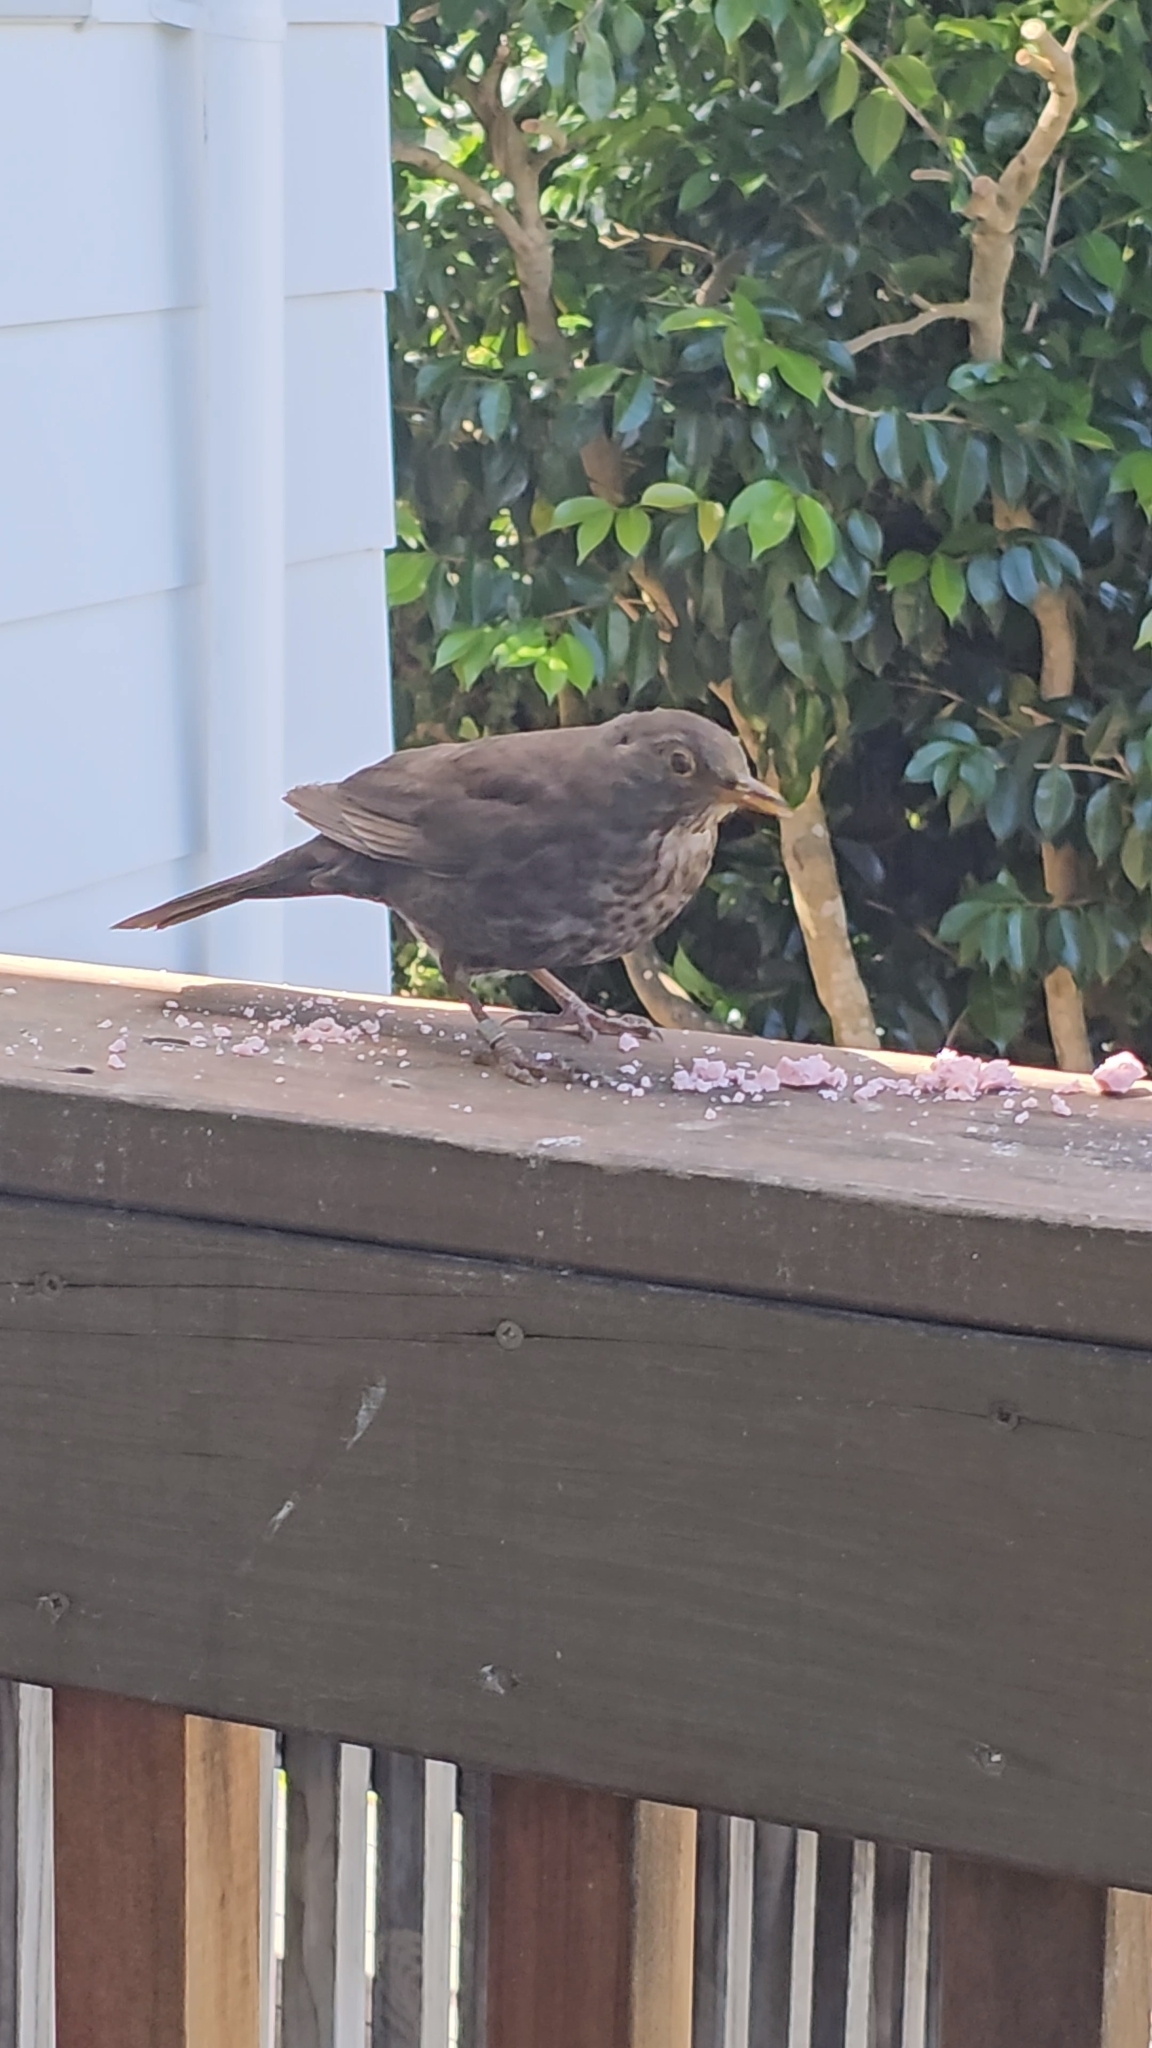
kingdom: Animalia
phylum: Chordata
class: Aves
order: Passeriformes
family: Turdidae
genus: Turdus
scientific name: Turdus merula
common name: Common blackbird
